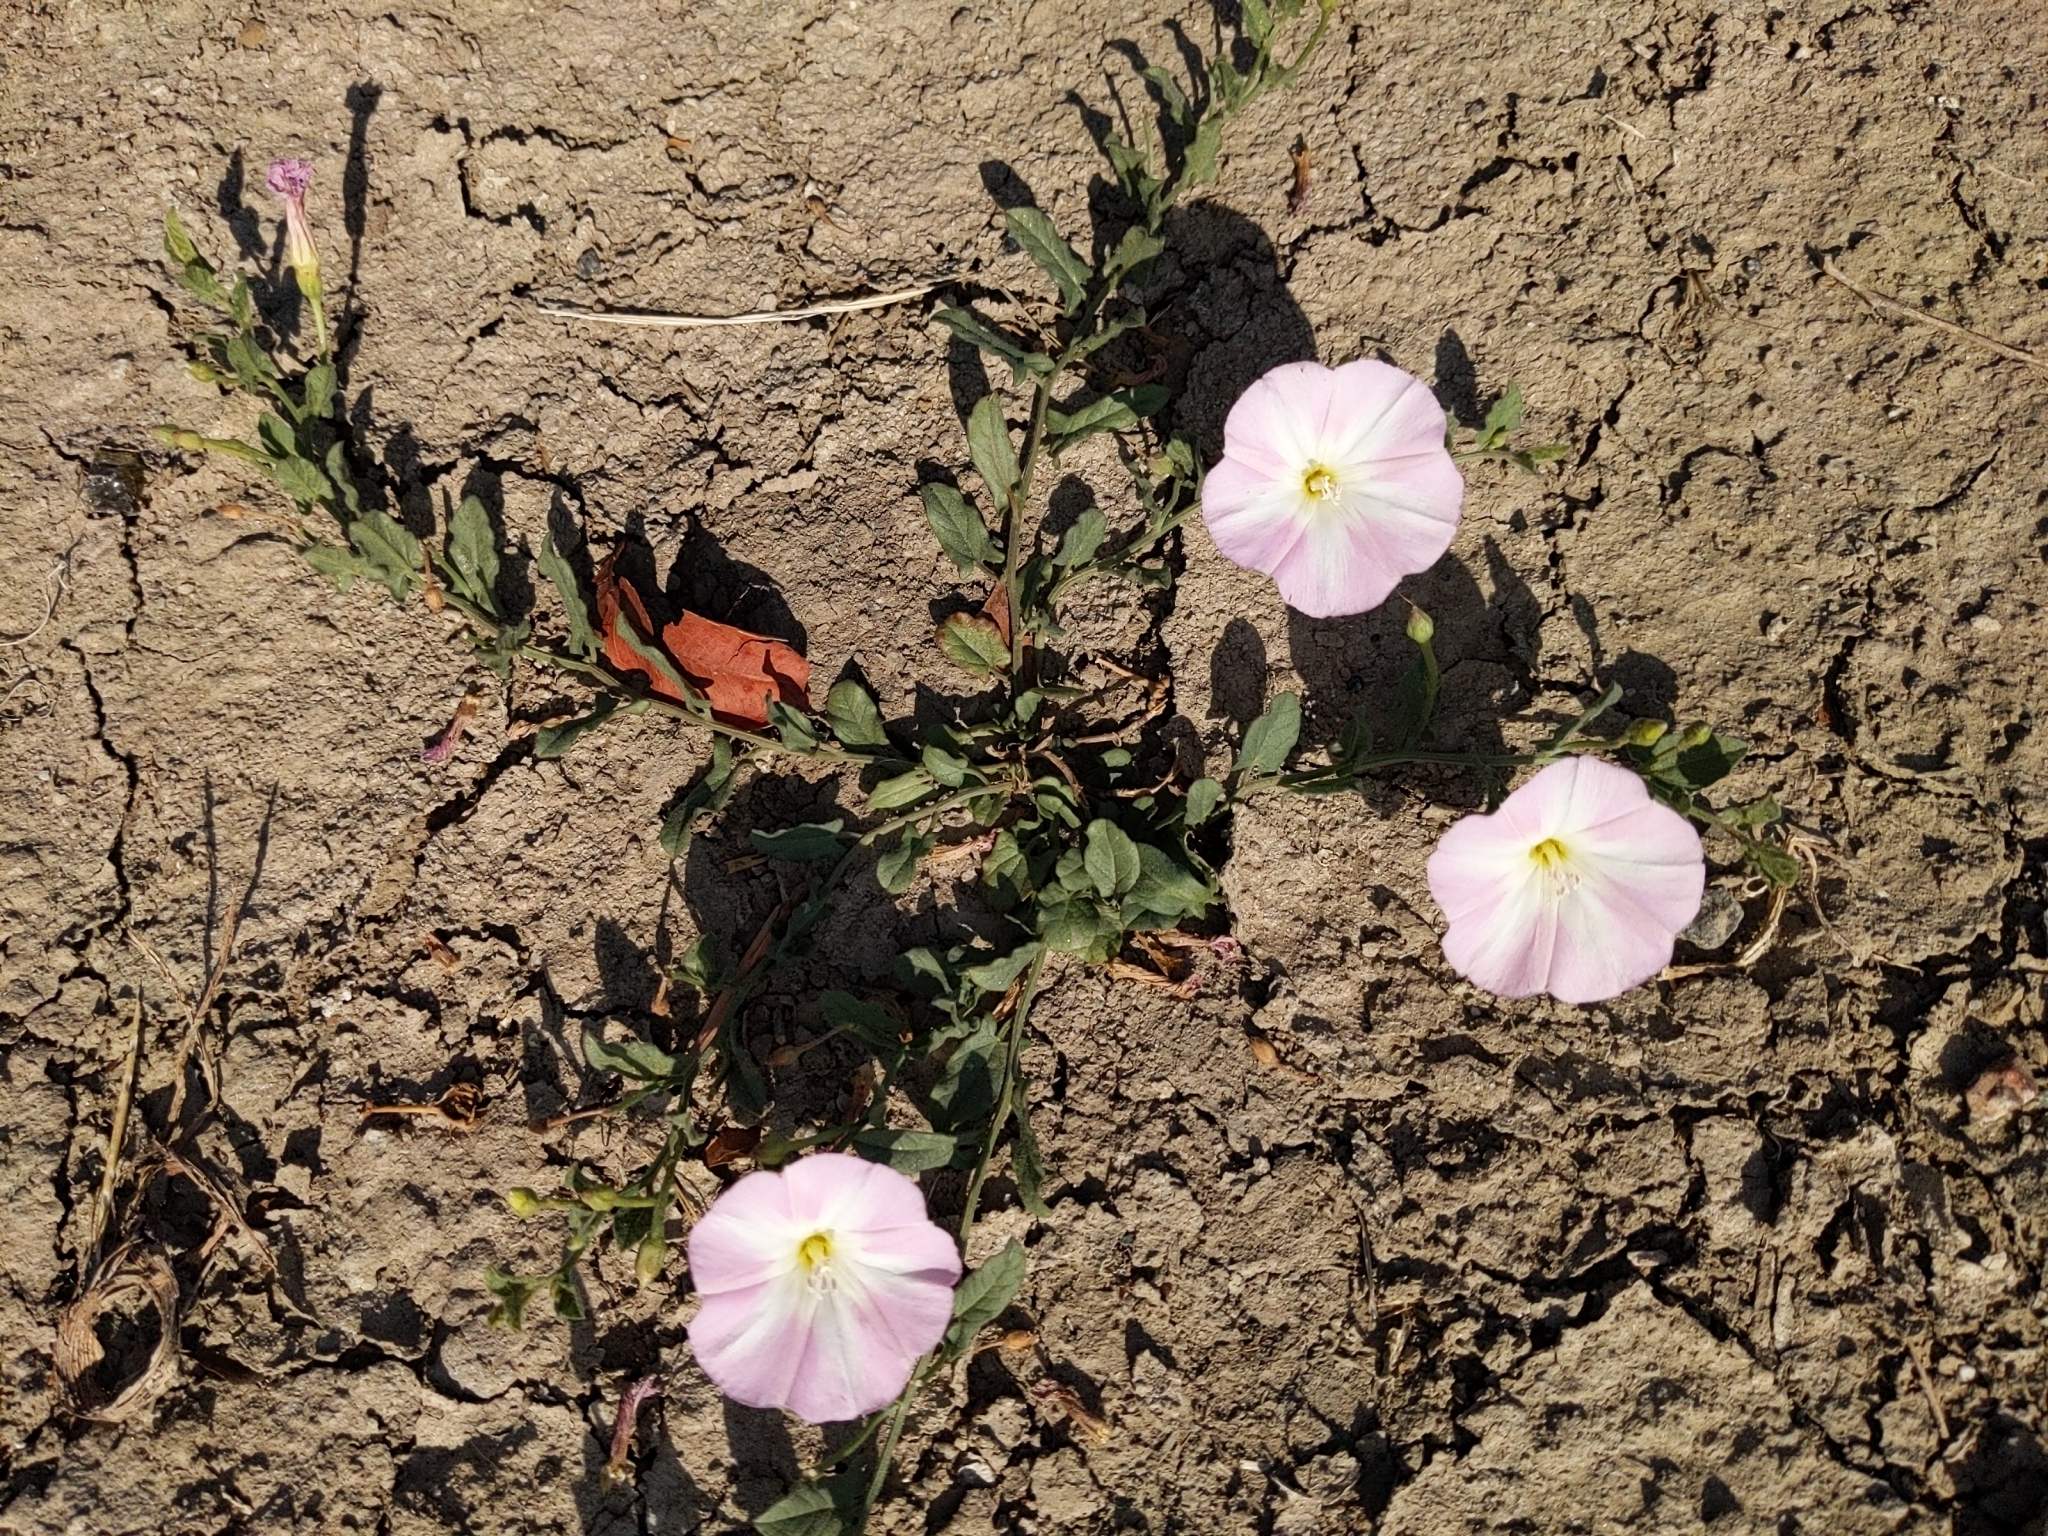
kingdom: Plantae
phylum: Tracheophyta
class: Magnoliopsida
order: Solanales
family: Convolvulaceae
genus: Convolvulus
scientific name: Convolvulus arvensis
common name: Field bindweed
